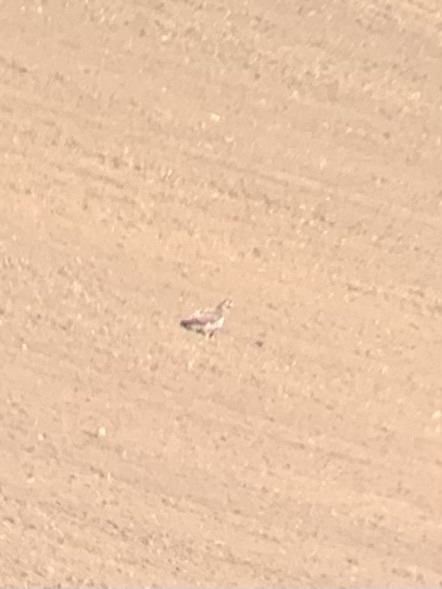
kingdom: Animalia
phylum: Chordata
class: Aves
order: Accipitriformes
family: Accipitridae
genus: Buteo
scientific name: Buteo buteo
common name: Common buzzard
